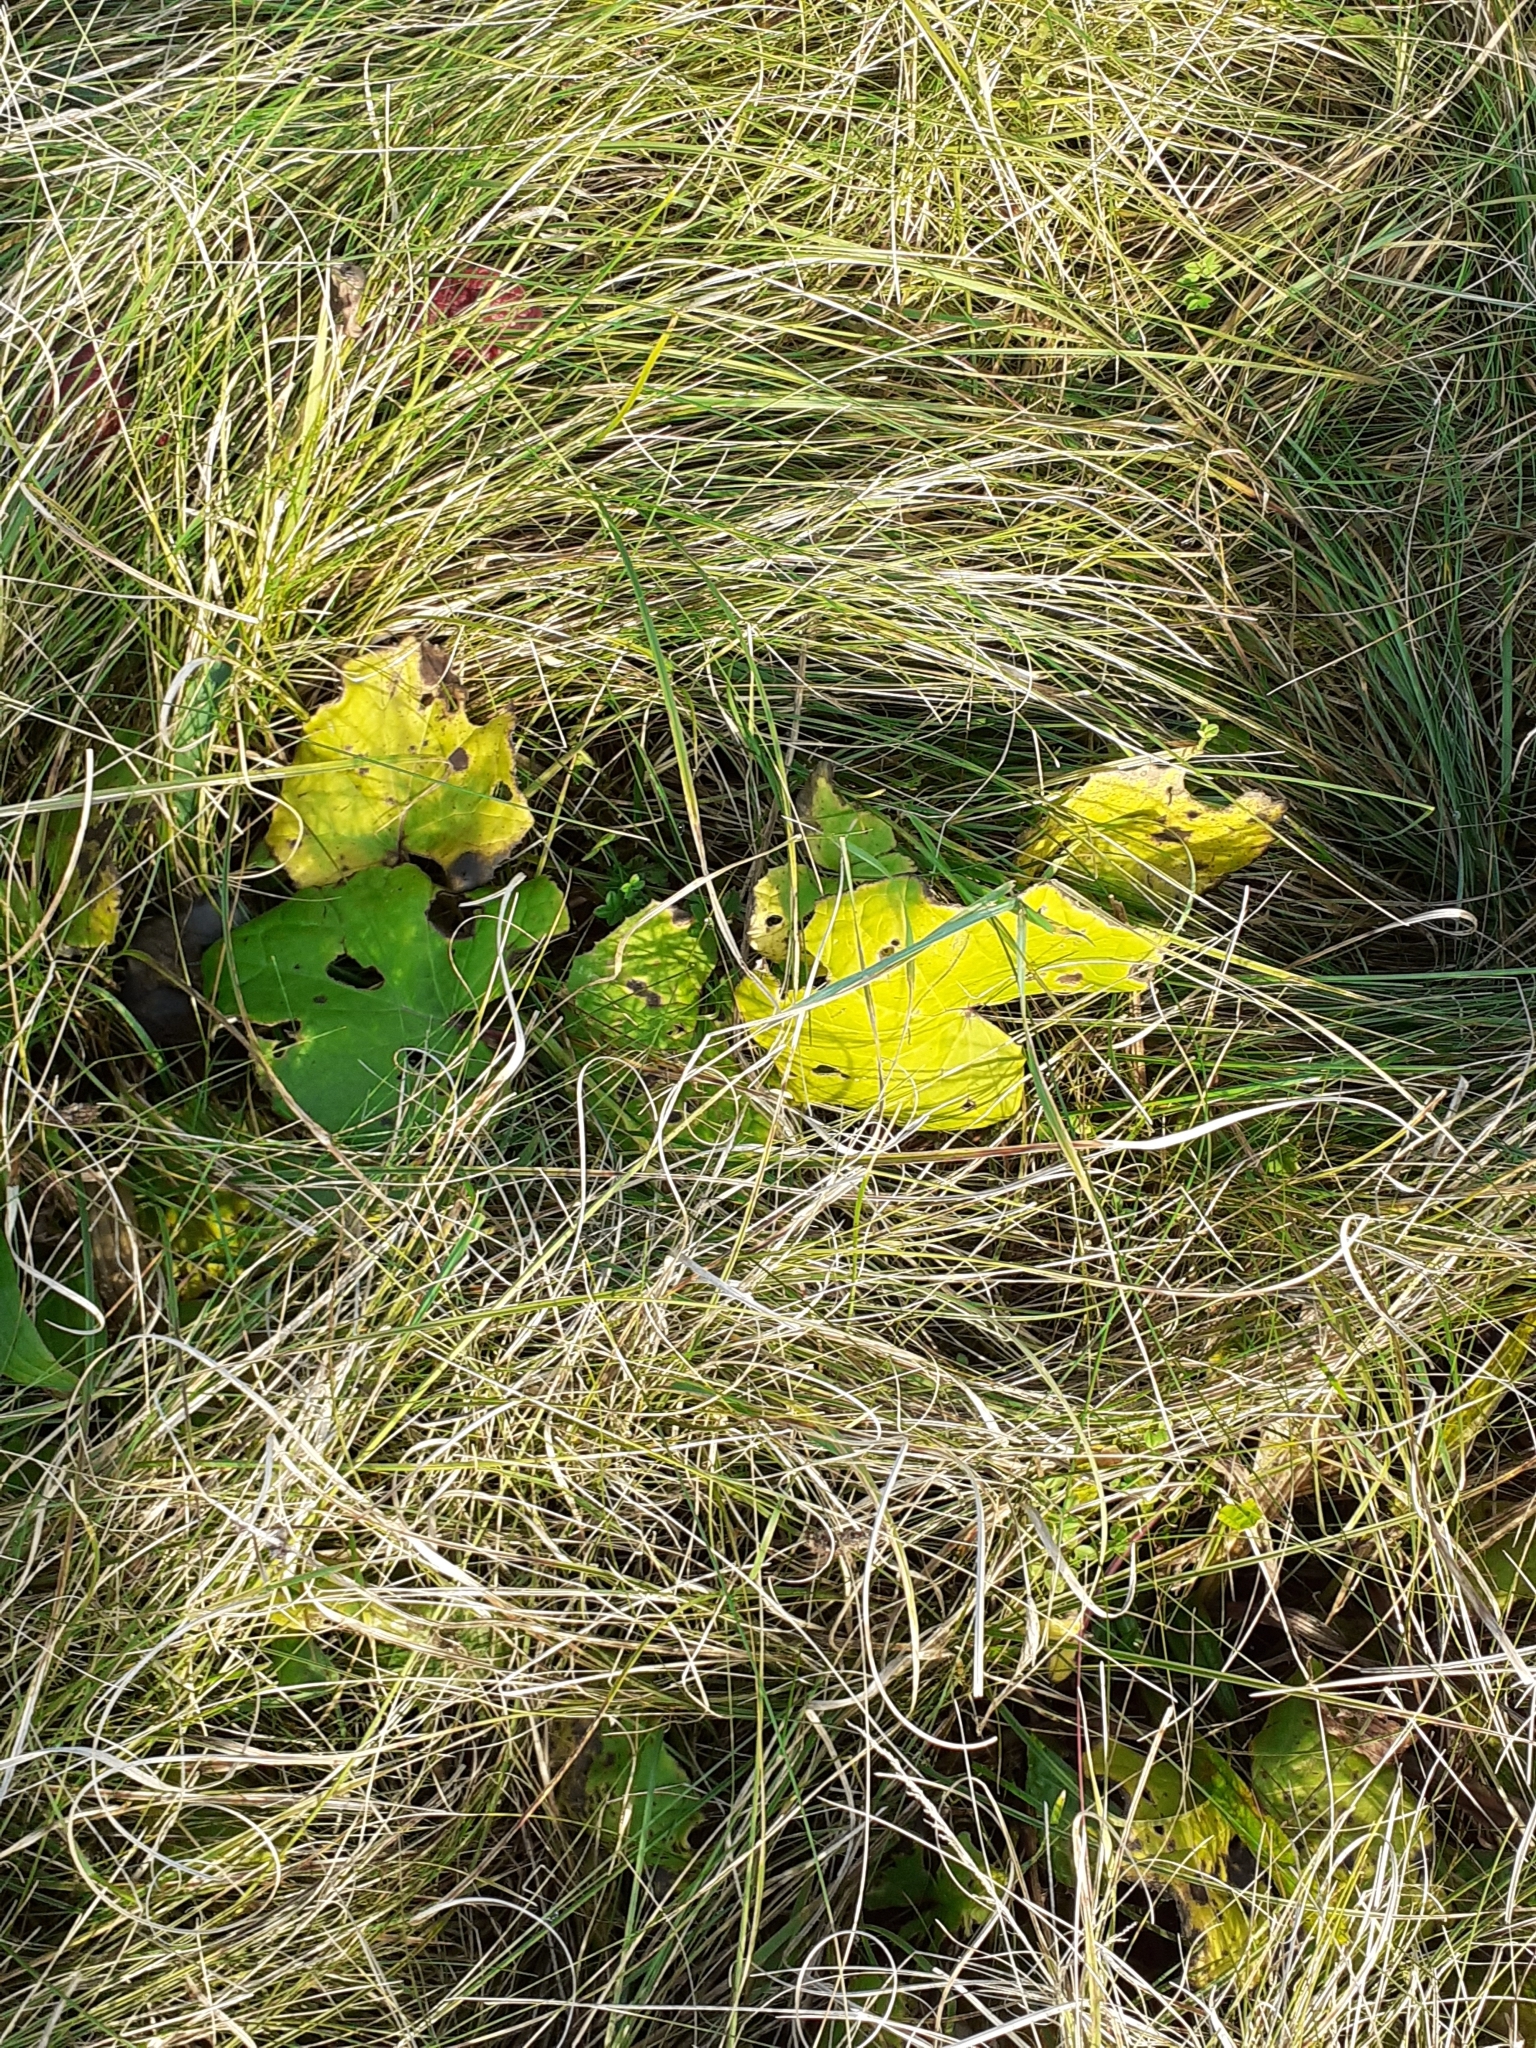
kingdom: Plantae
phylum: Tracheophyta
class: Magnoliopsida
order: Asterales
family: Asteraceae
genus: Tussilago
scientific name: Tussilago farfara
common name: Coltsfoot
